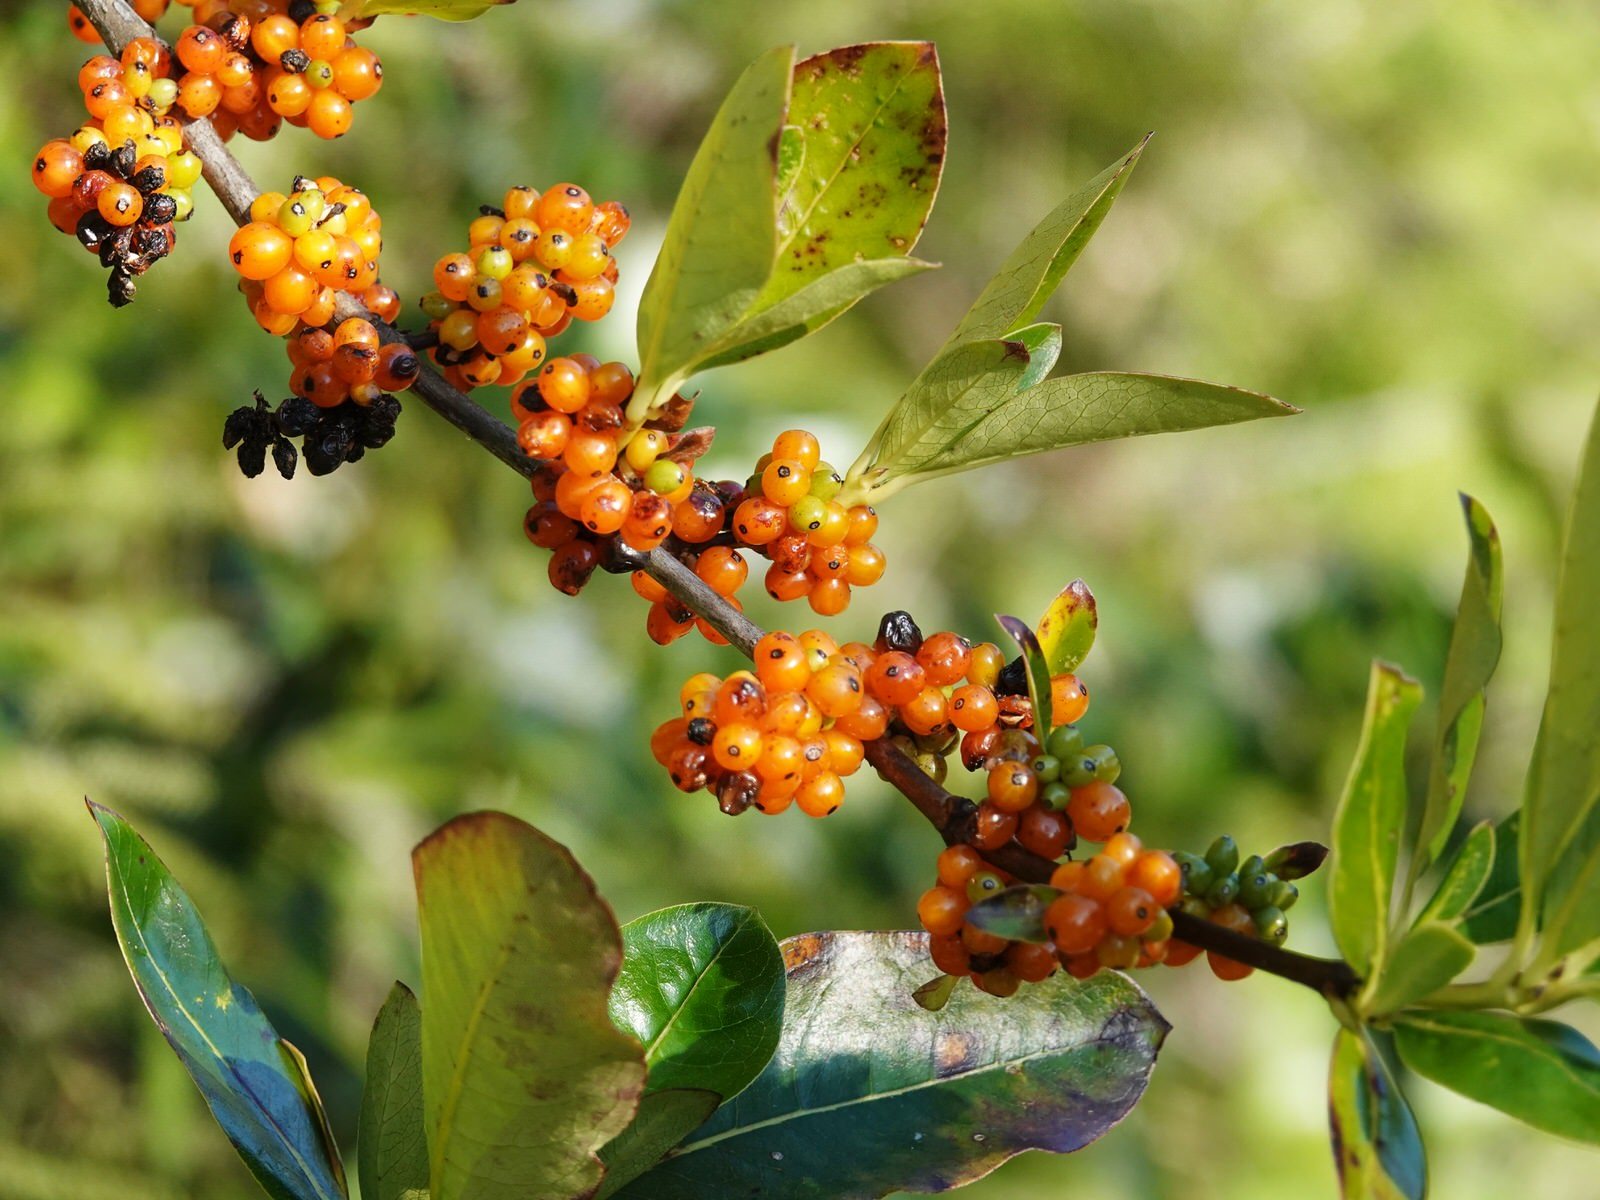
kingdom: Plantae
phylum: Tracheophyta
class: Magnoliopsida
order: Gentianales
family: Rubiaceae
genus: Coprosma
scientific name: Coprosma robusta
